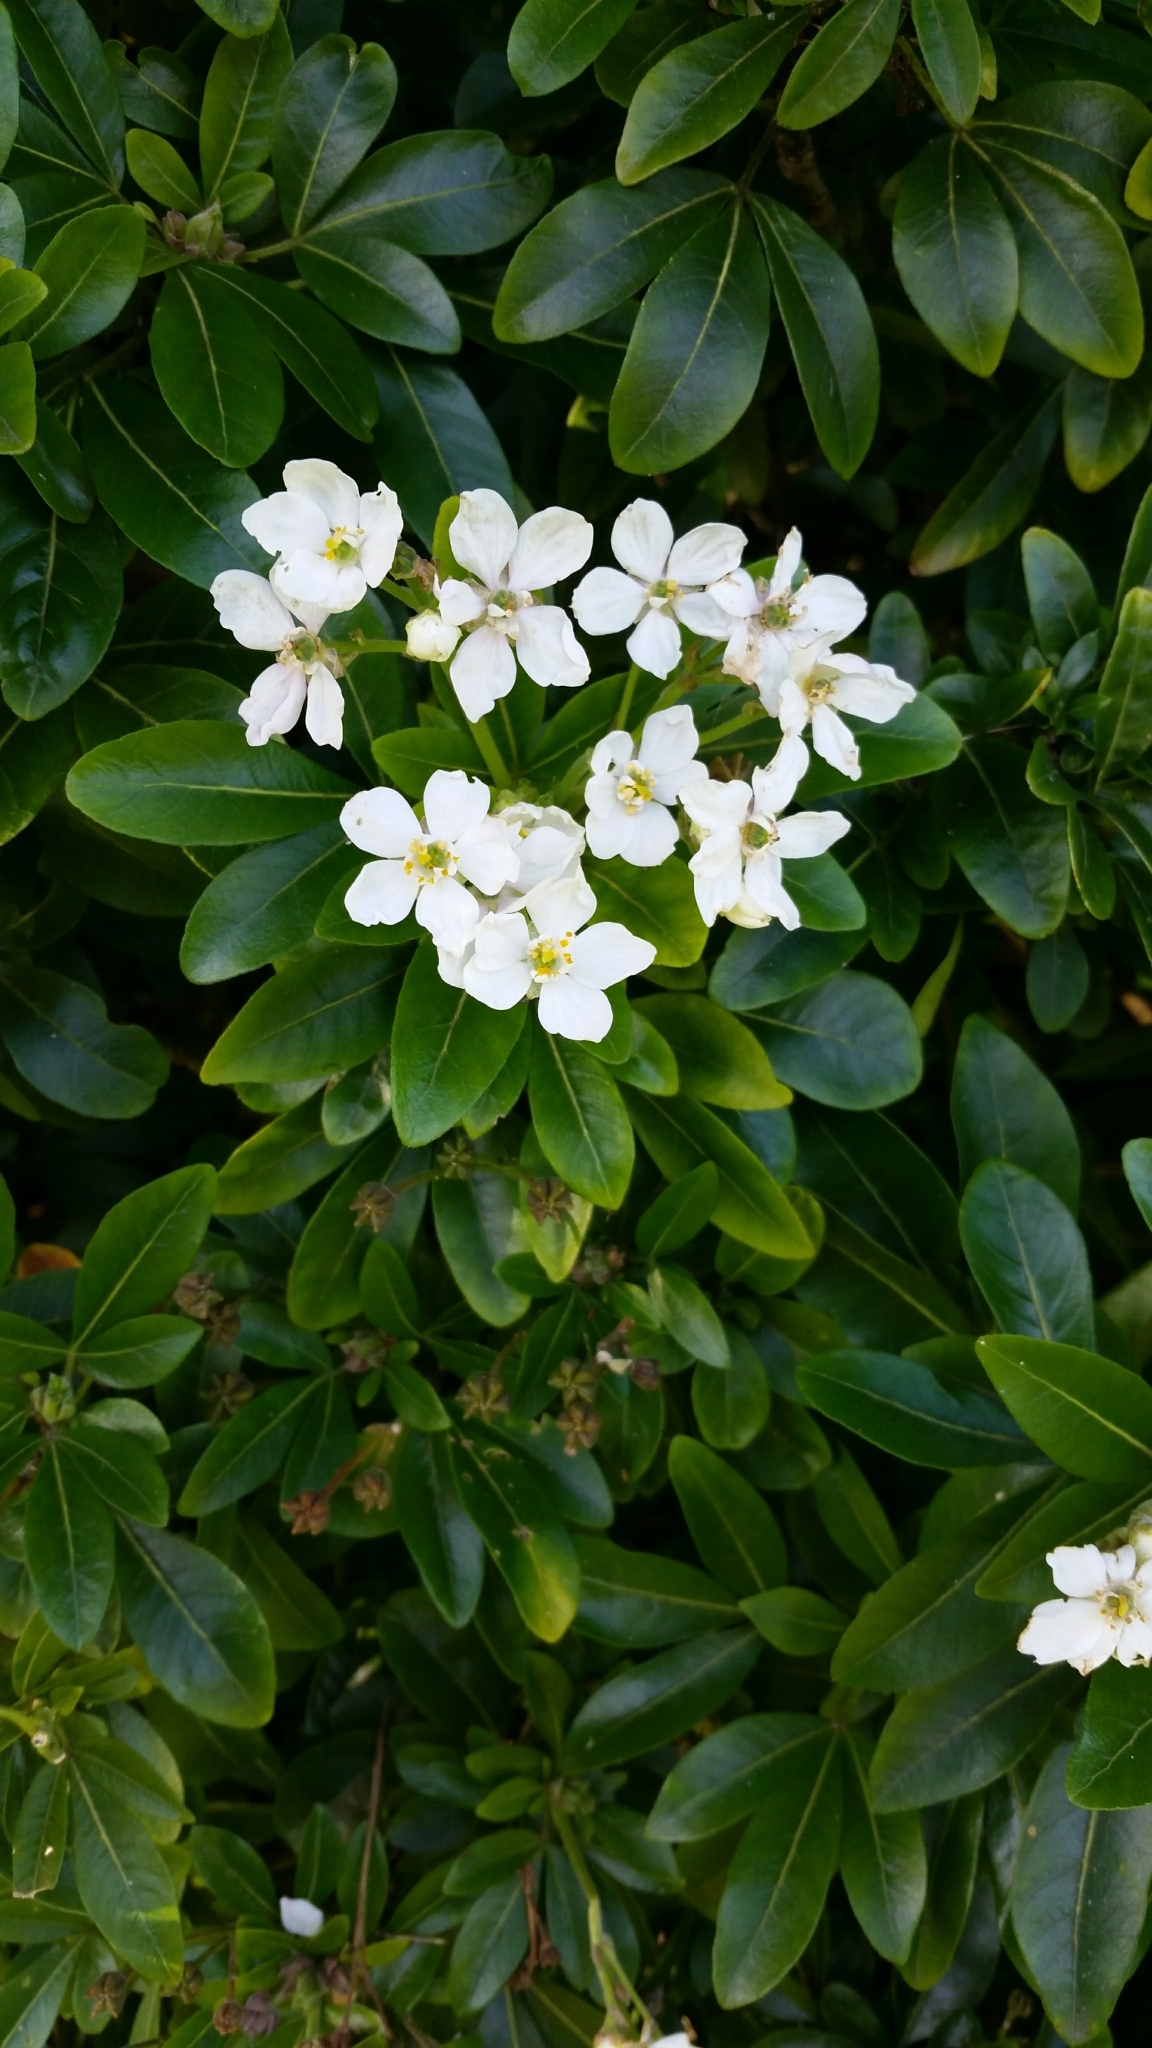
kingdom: Plantae
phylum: Tracheophyta
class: Magnoliopsida
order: Sapindales
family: Rutaceae
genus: Choisya
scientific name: Choisya ternata
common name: Mexican orange
